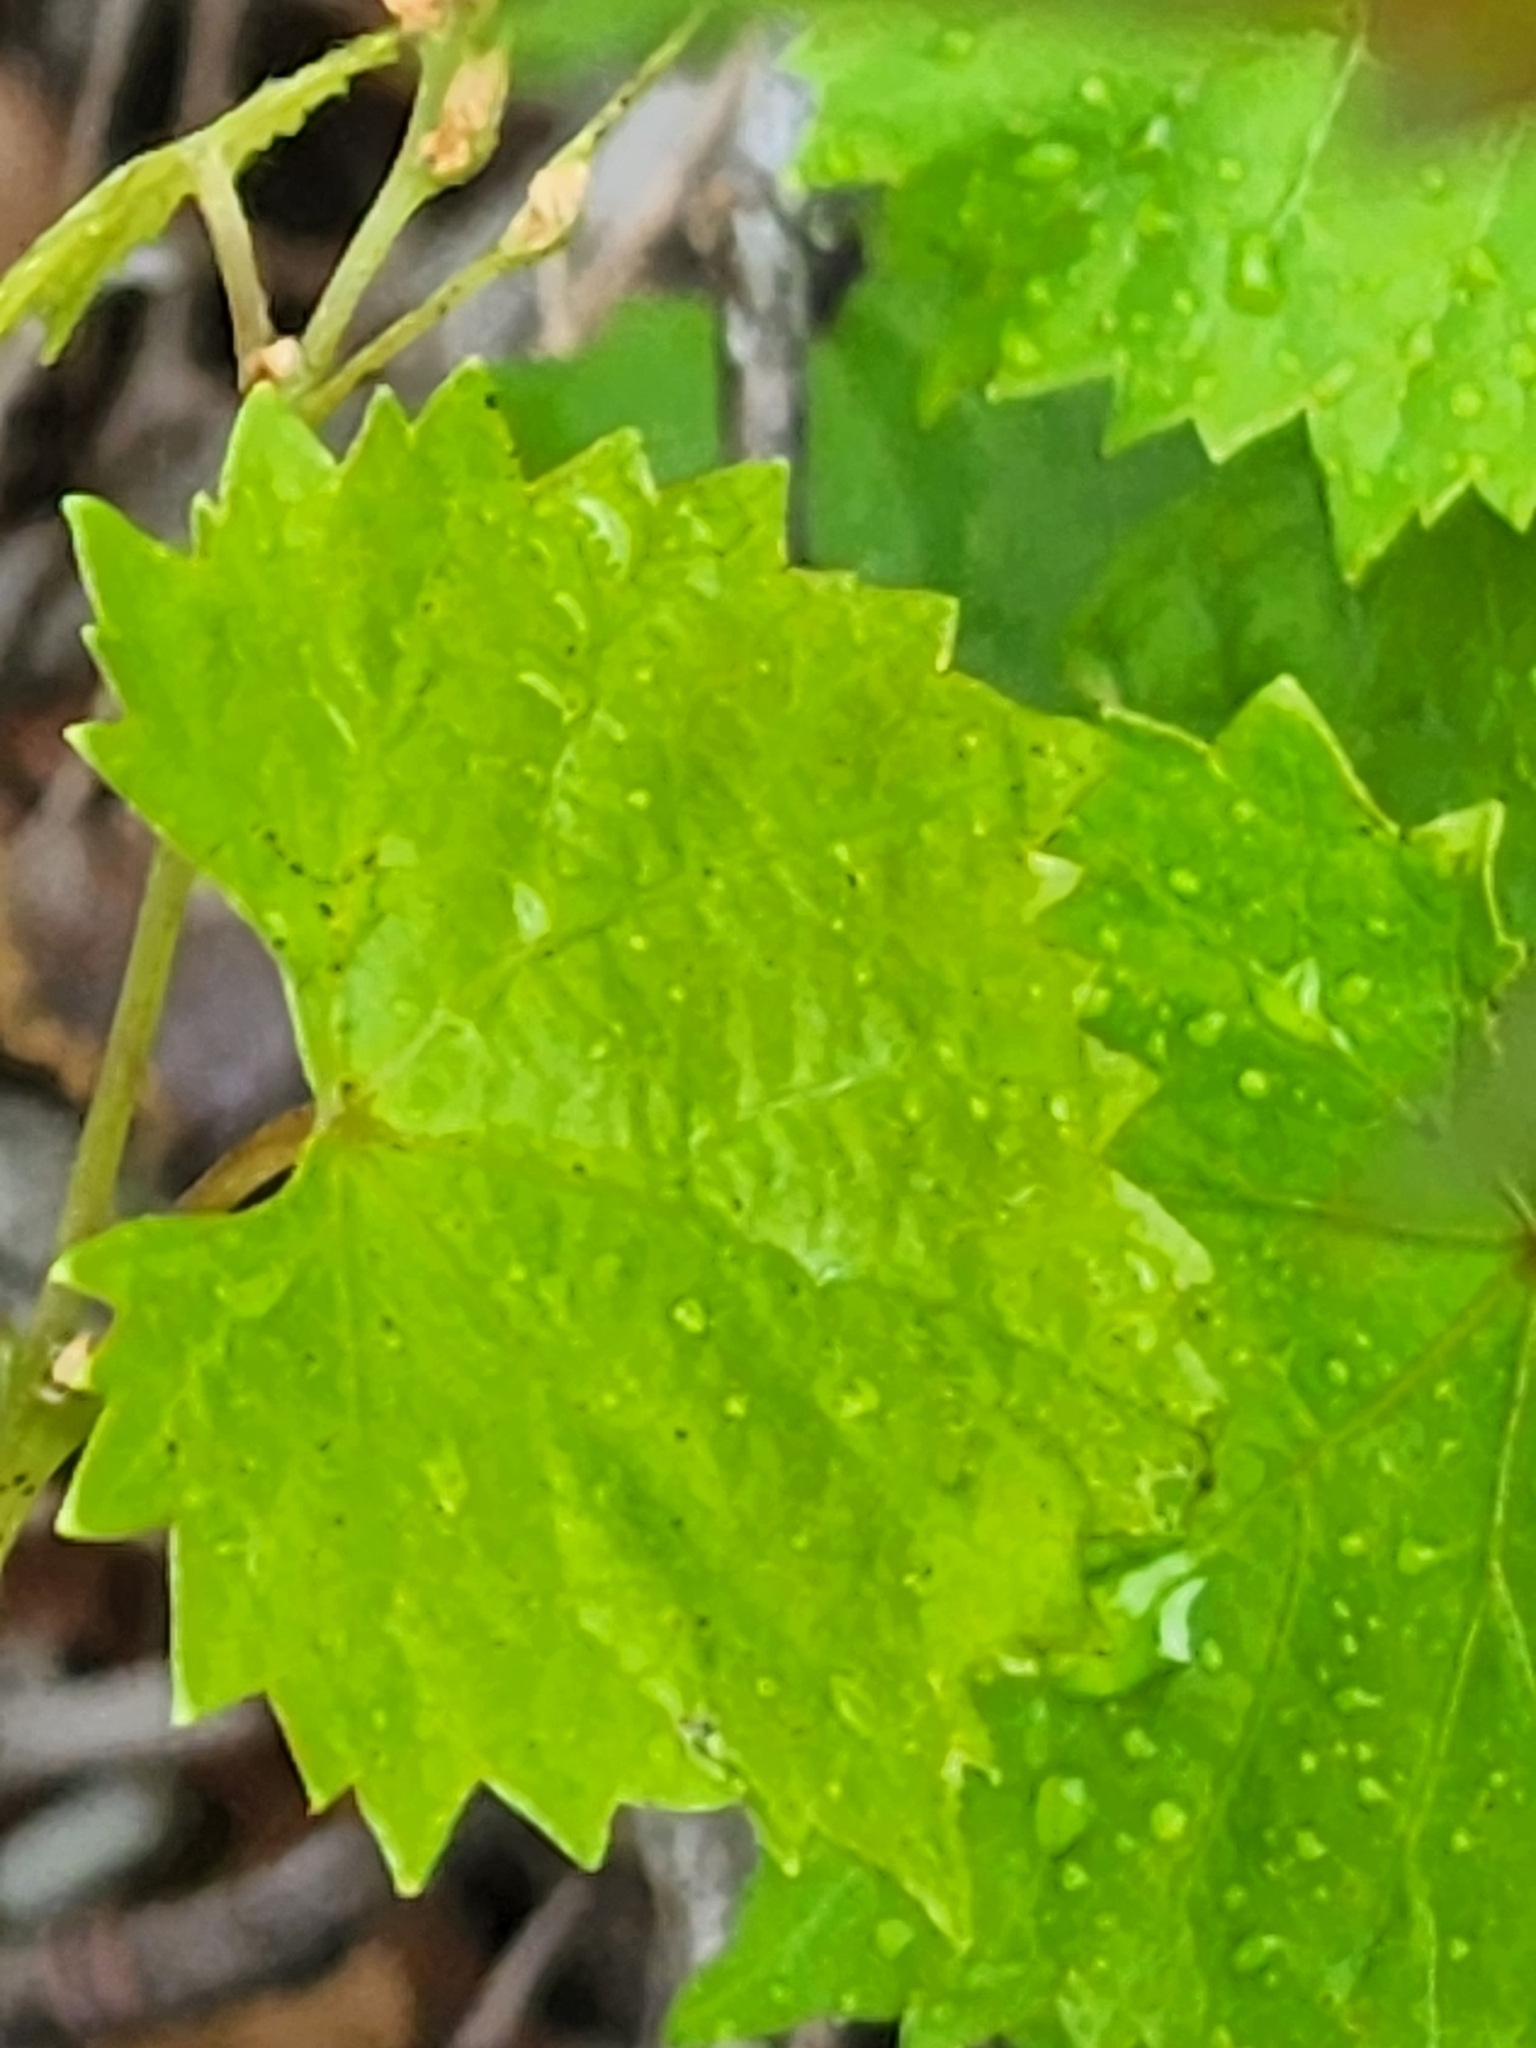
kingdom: Plantae
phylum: Tracheophyta
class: Magnoliopsida
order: Vitales
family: Vitaceae
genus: Vitis
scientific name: Vitis rotundifolia
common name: Muscadine grape
